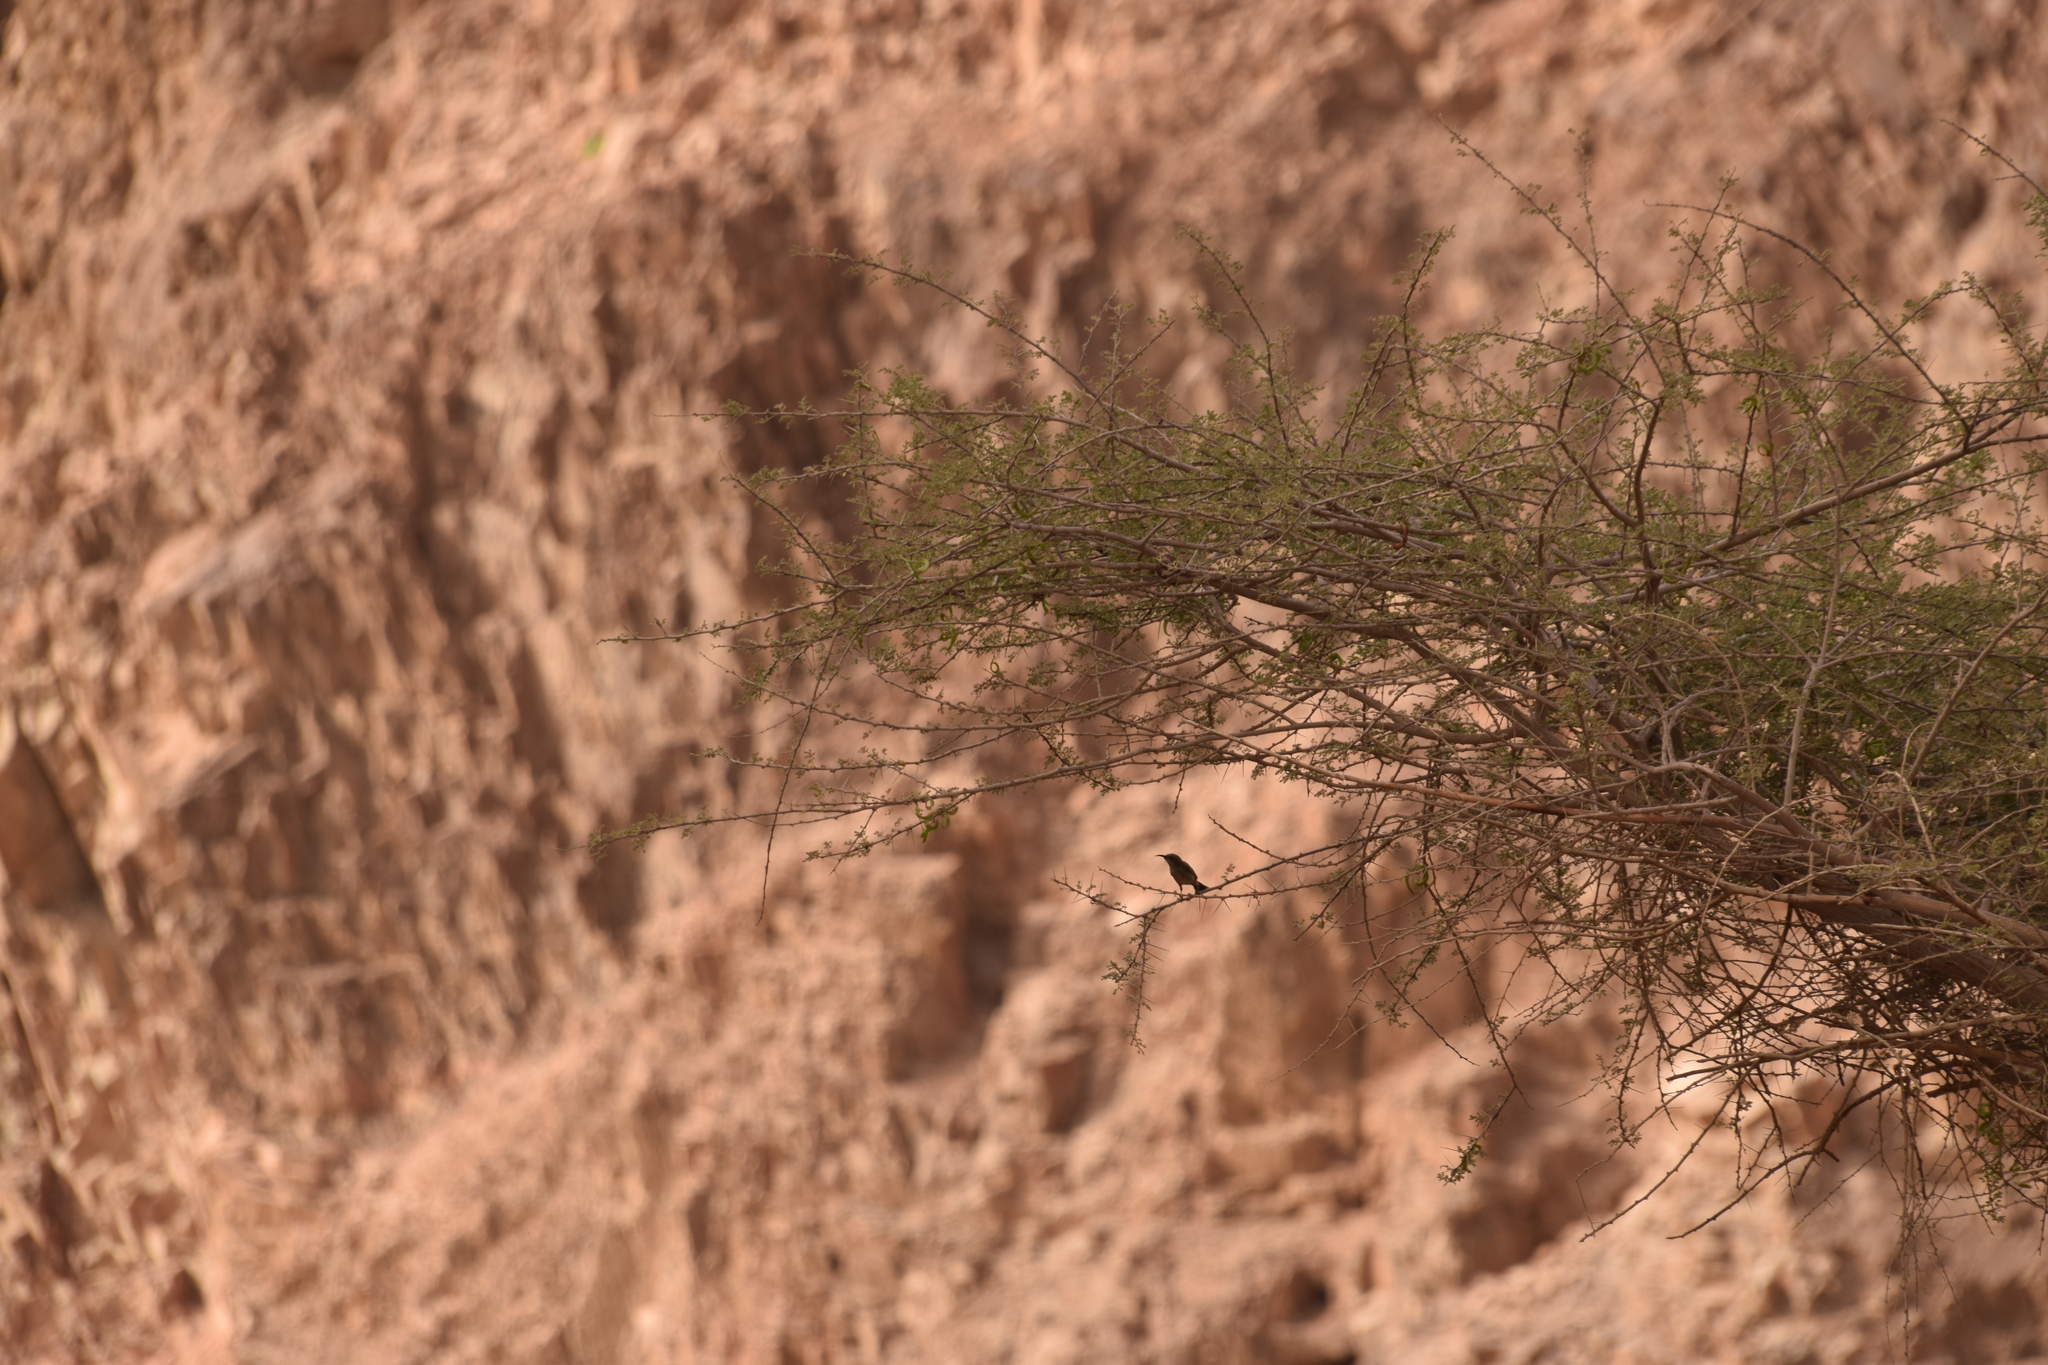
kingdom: Animalia
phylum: Chordata
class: Aves
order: Passeriformes
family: Nectariniidae
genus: Cinnyris
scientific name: Cinnyris osea
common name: Palestine sunbird
